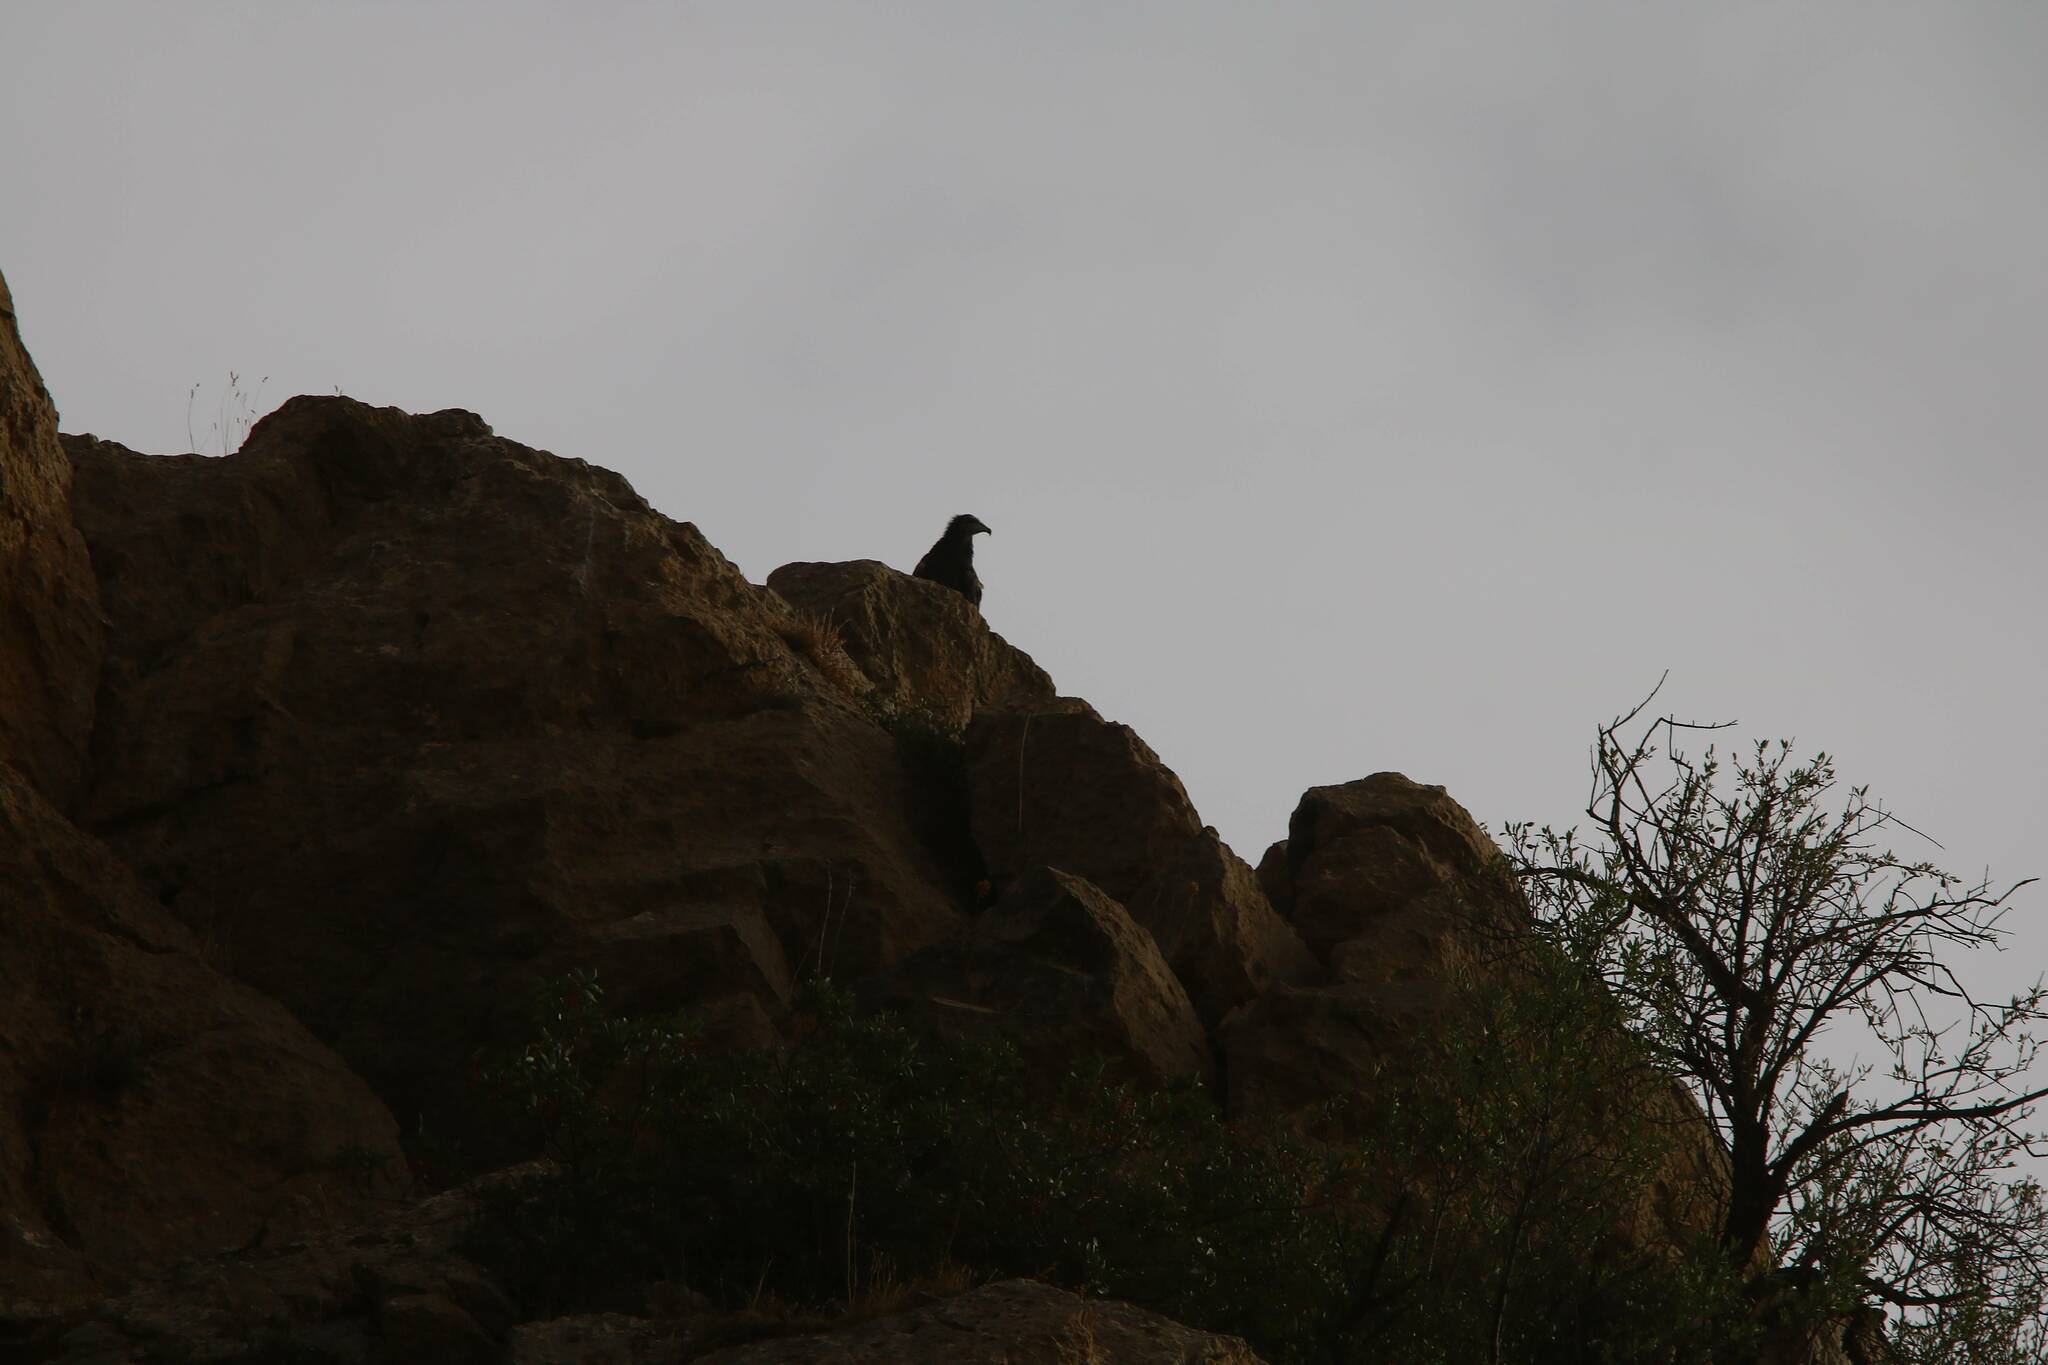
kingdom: Animalia
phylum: Chordata
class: Aves
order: Accipitriformes
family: Accipitridae
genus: Neophron
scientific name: Neophron percnopterus
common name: Egyptian vulture
